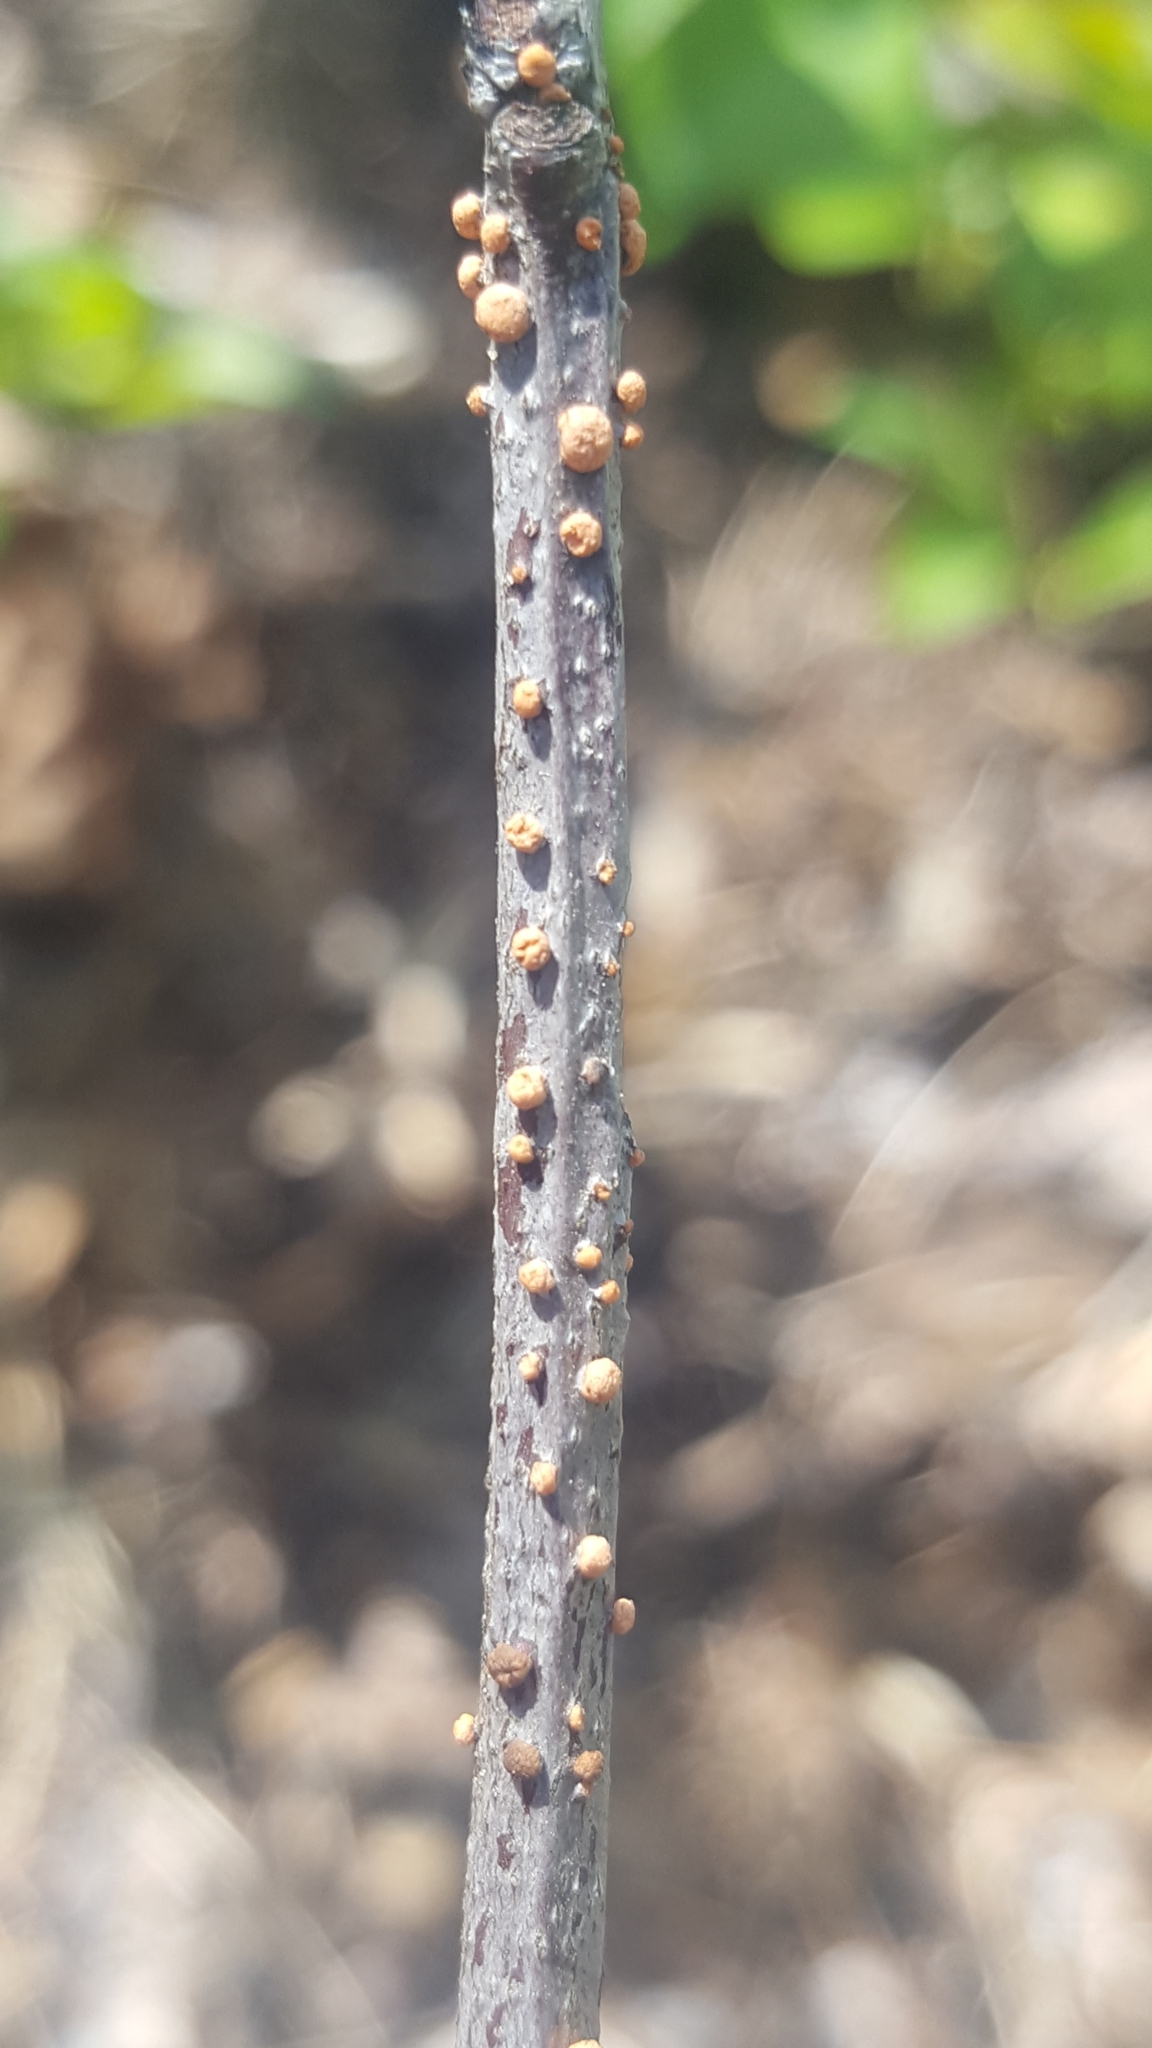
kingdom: Fungi
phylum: Ascomycota
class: Sordariomycetes
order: Hypocreales
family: Nectriaceae
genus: Nectria
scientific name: Nectria cinnabarina
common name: Coral spot
